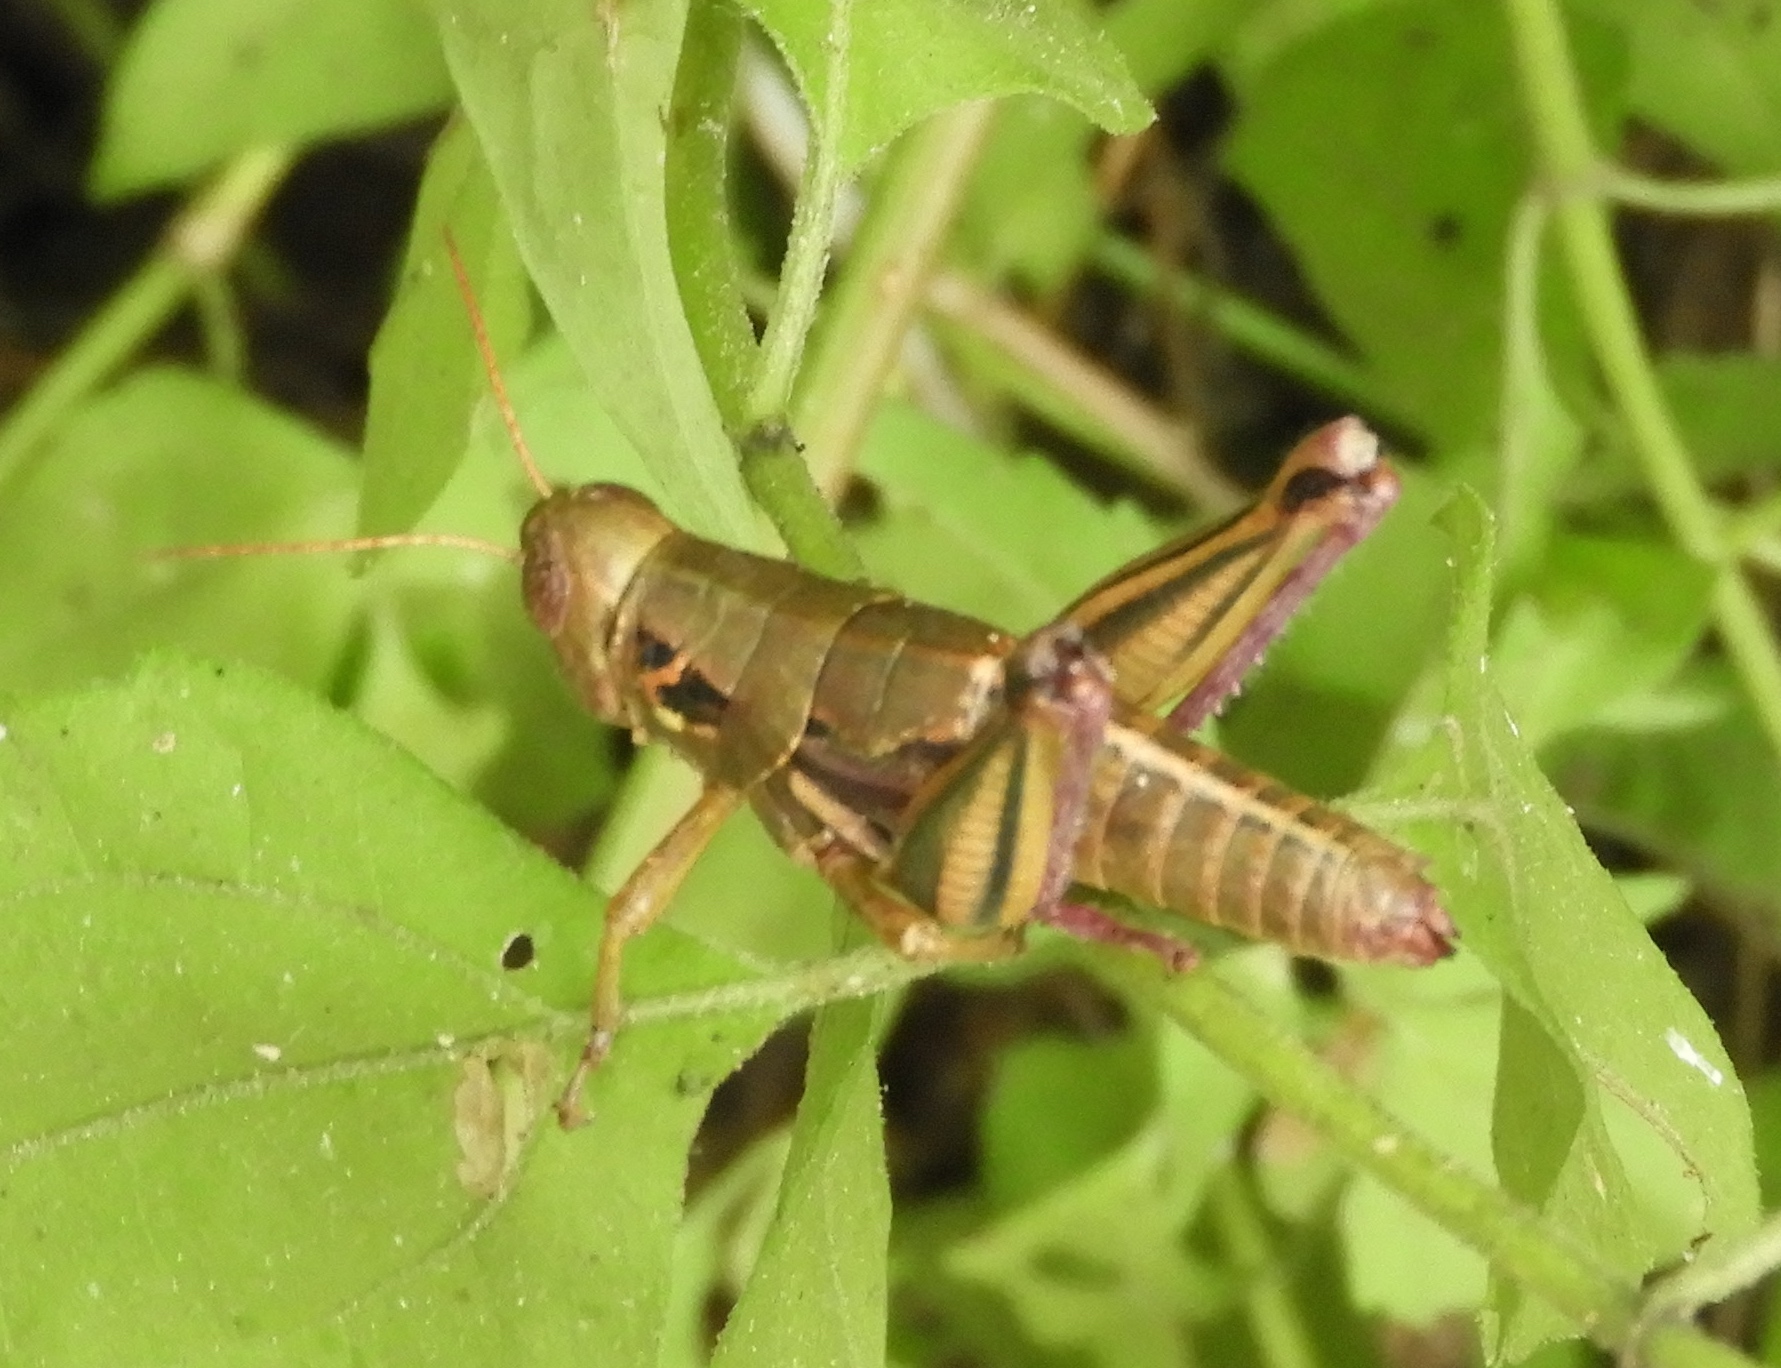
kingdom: Animalia
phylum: Arthropoda
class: Insecta
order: Orthoptera
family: Acrididae
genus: Barytettix
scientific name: Barytettix
